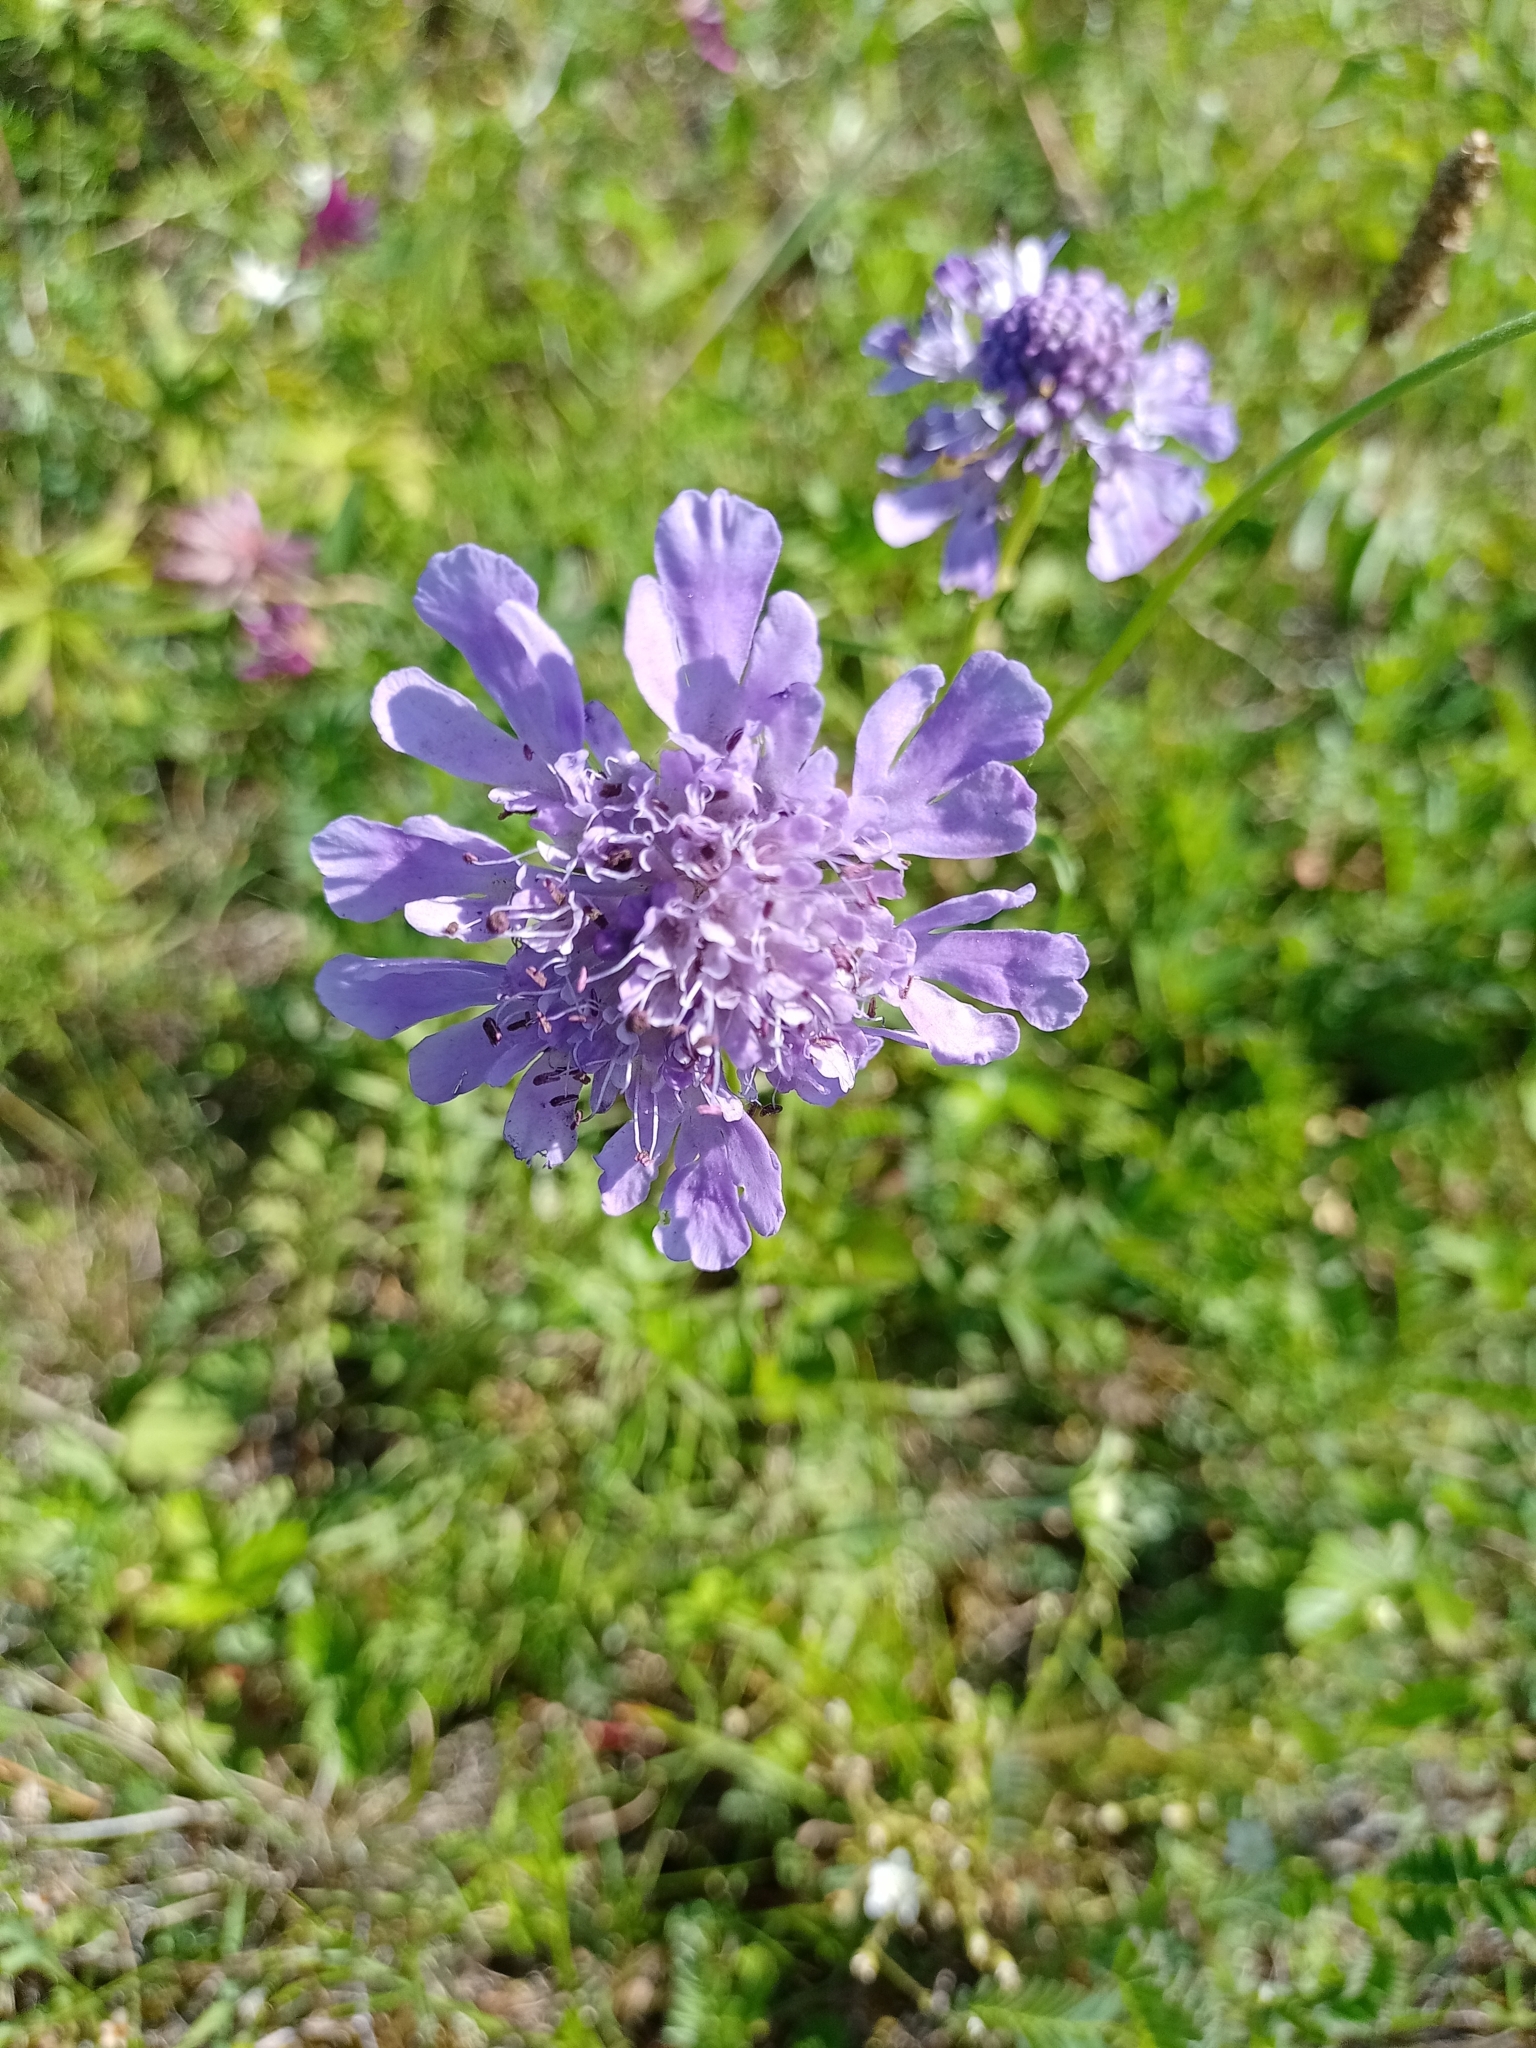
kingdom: Plantae
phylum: Tracheophyta
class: Magnoliopsida
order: Dipsacales
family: Caprifoliaceae
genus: Scabiosa
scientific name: Scabiosa comosa
